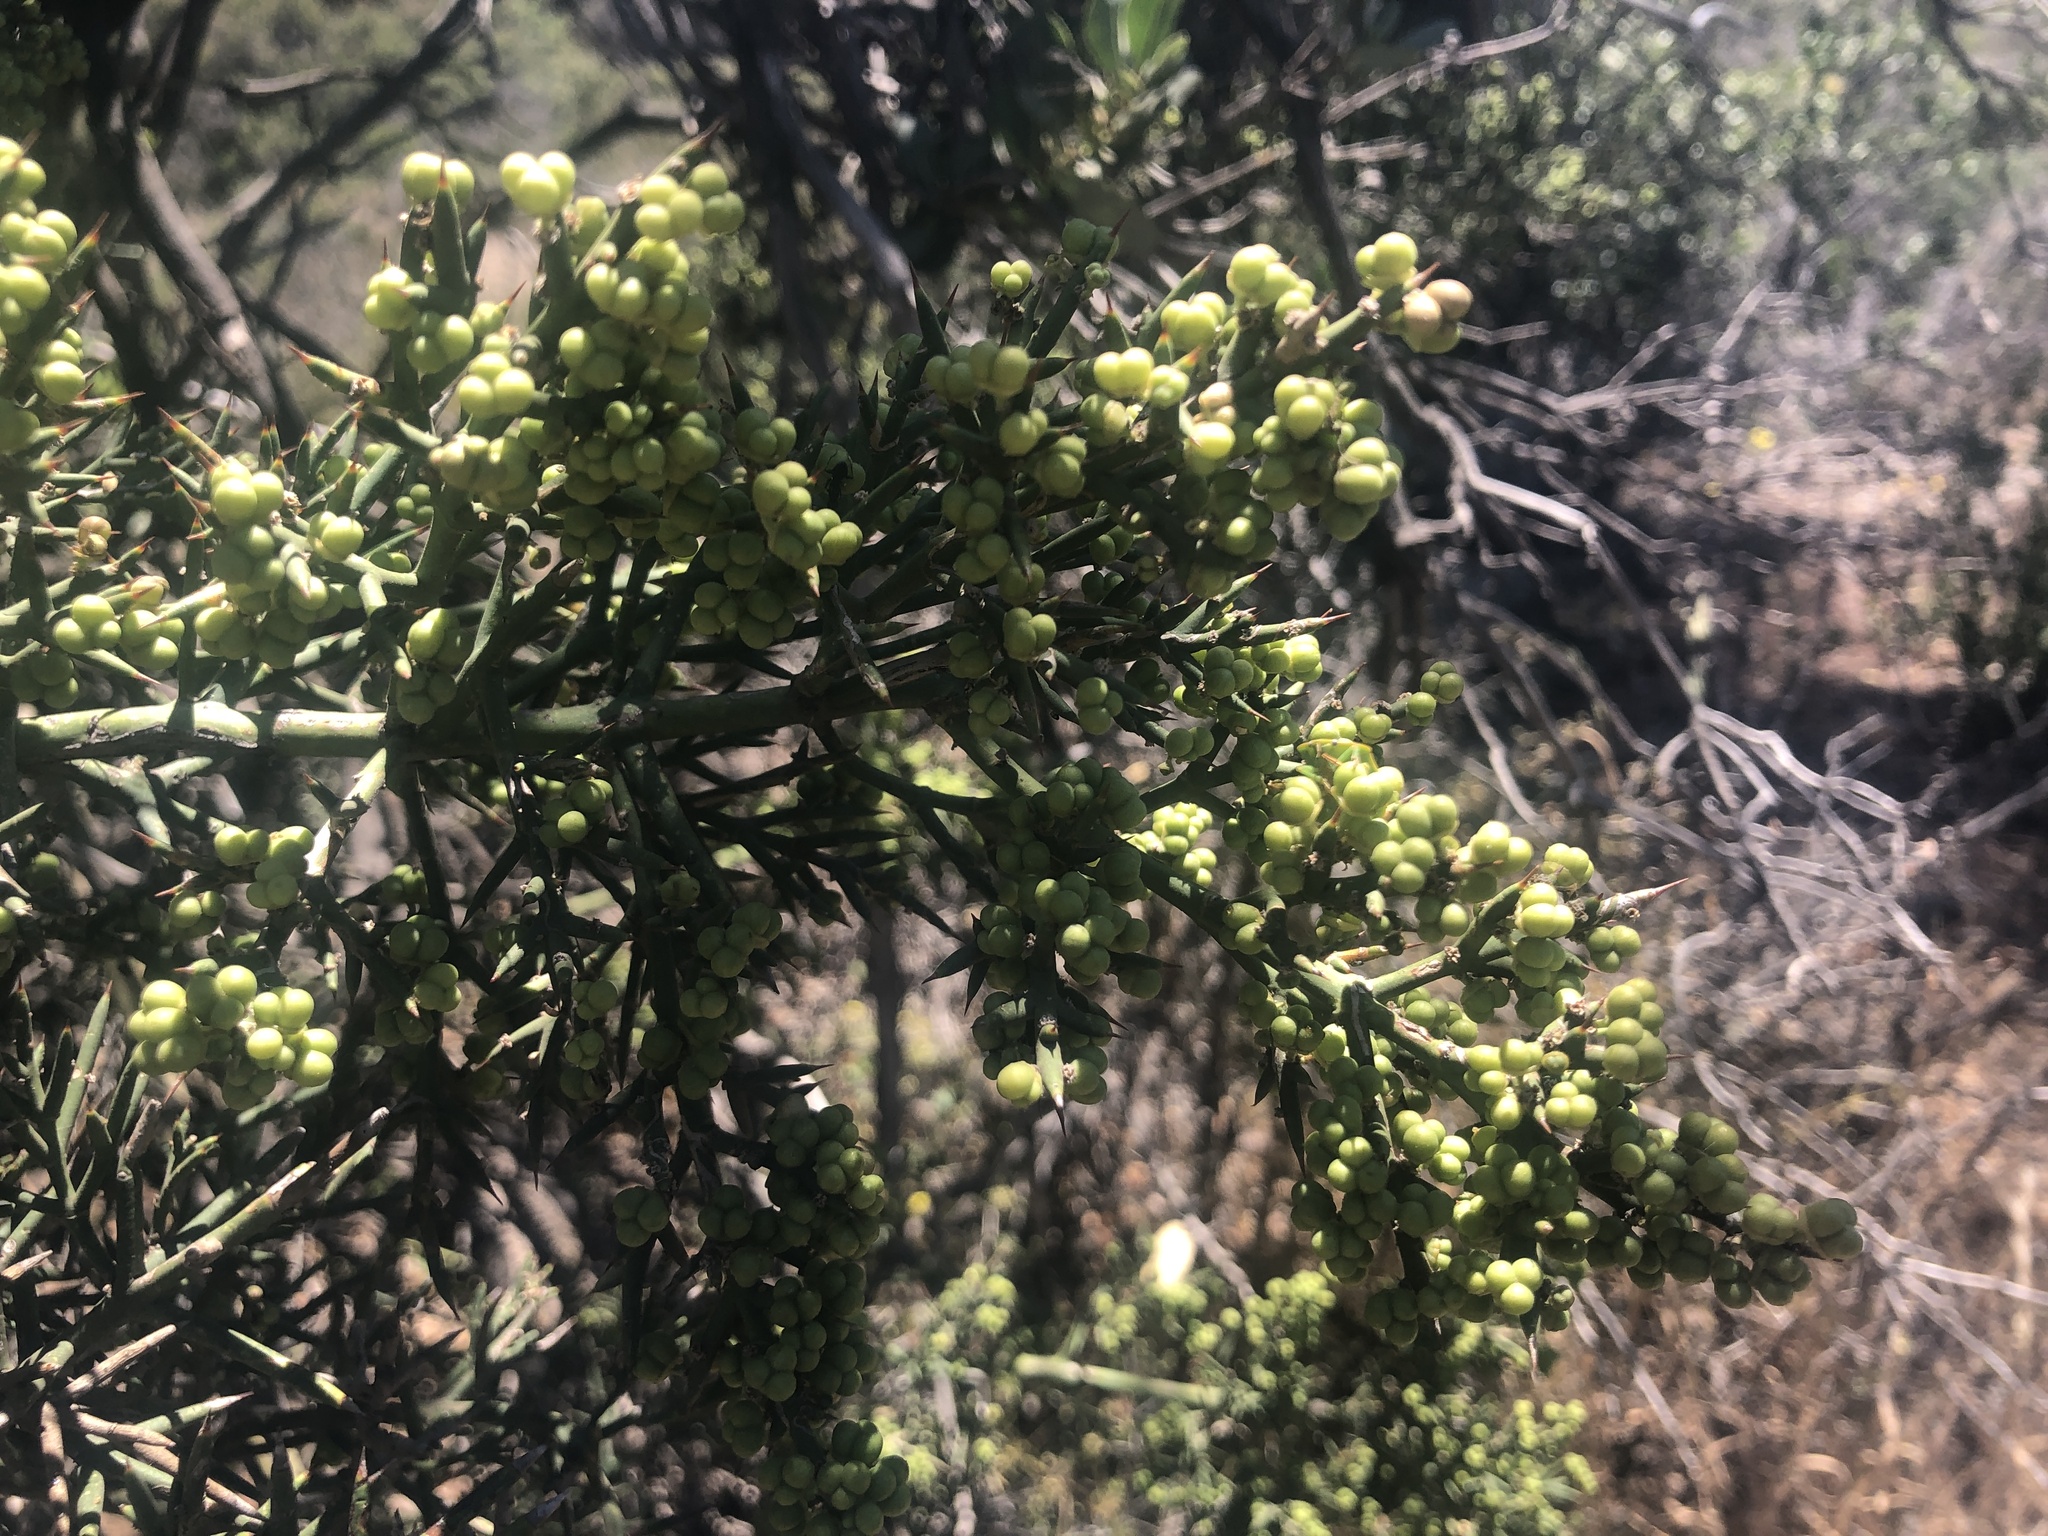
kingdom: Plantae
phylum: Tracheophyta
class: Magnoliopsida
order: Rosales
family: Rhamnaceae
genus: Colletia
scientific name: Colletia hystrix
